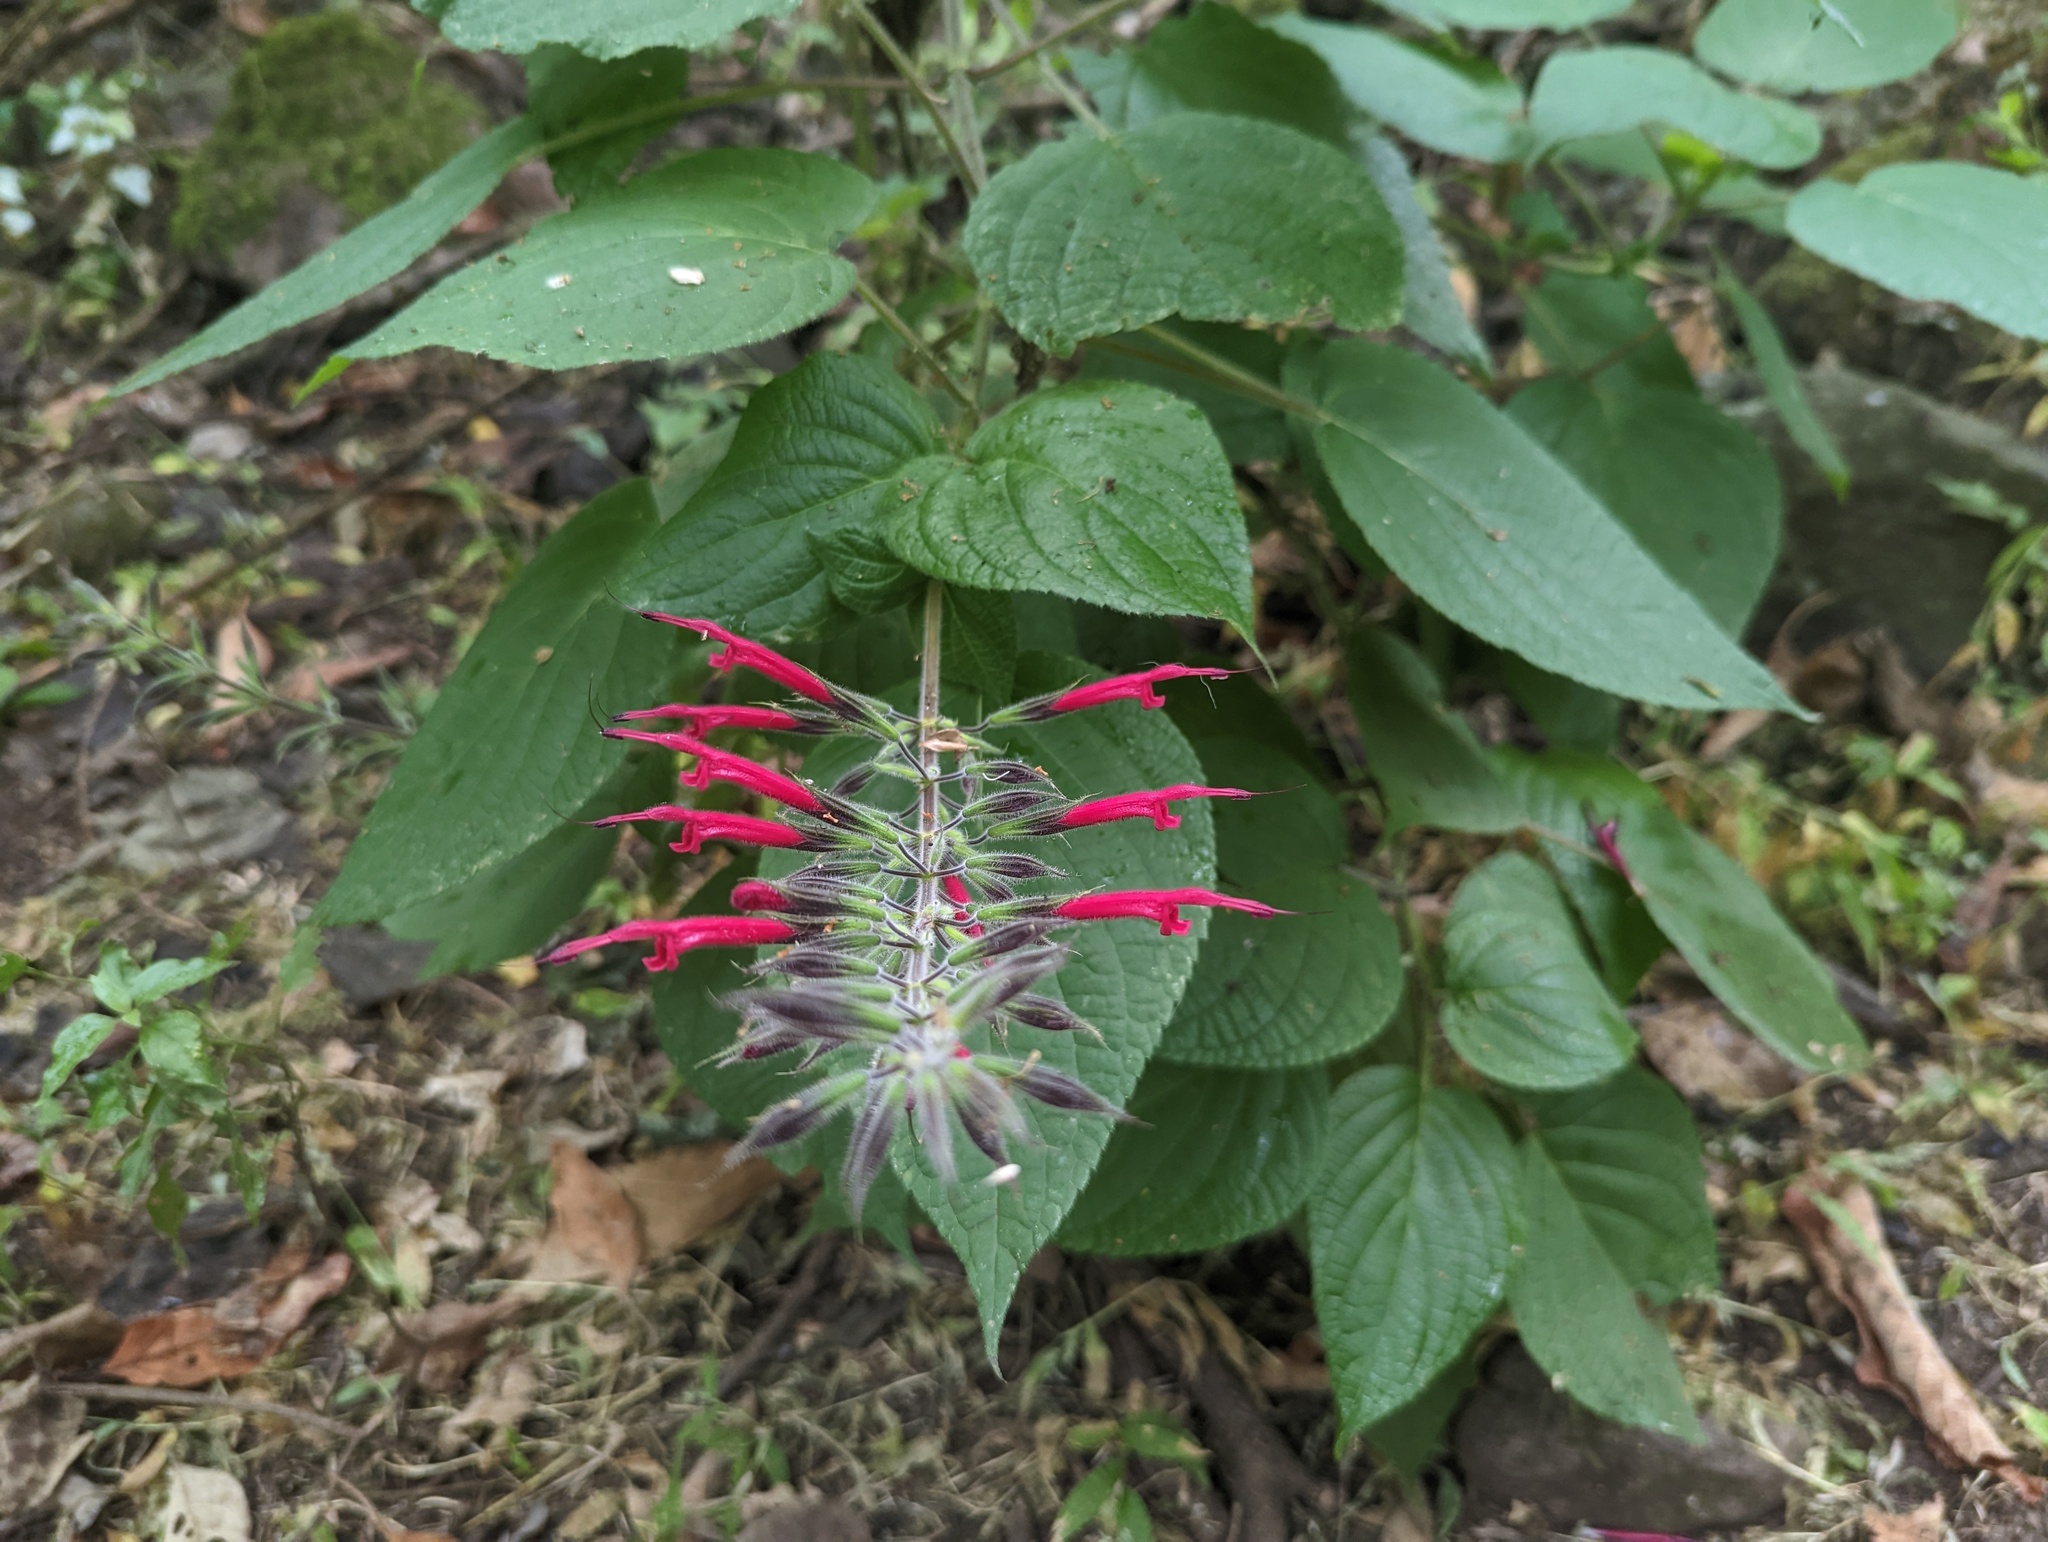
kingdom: Plantae
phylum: Tracheophyta
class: Magnoliopsida
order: Lamiales
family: Lamiaceae
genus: Salvia
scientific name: Salvia longistyla
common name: Mexican sage
